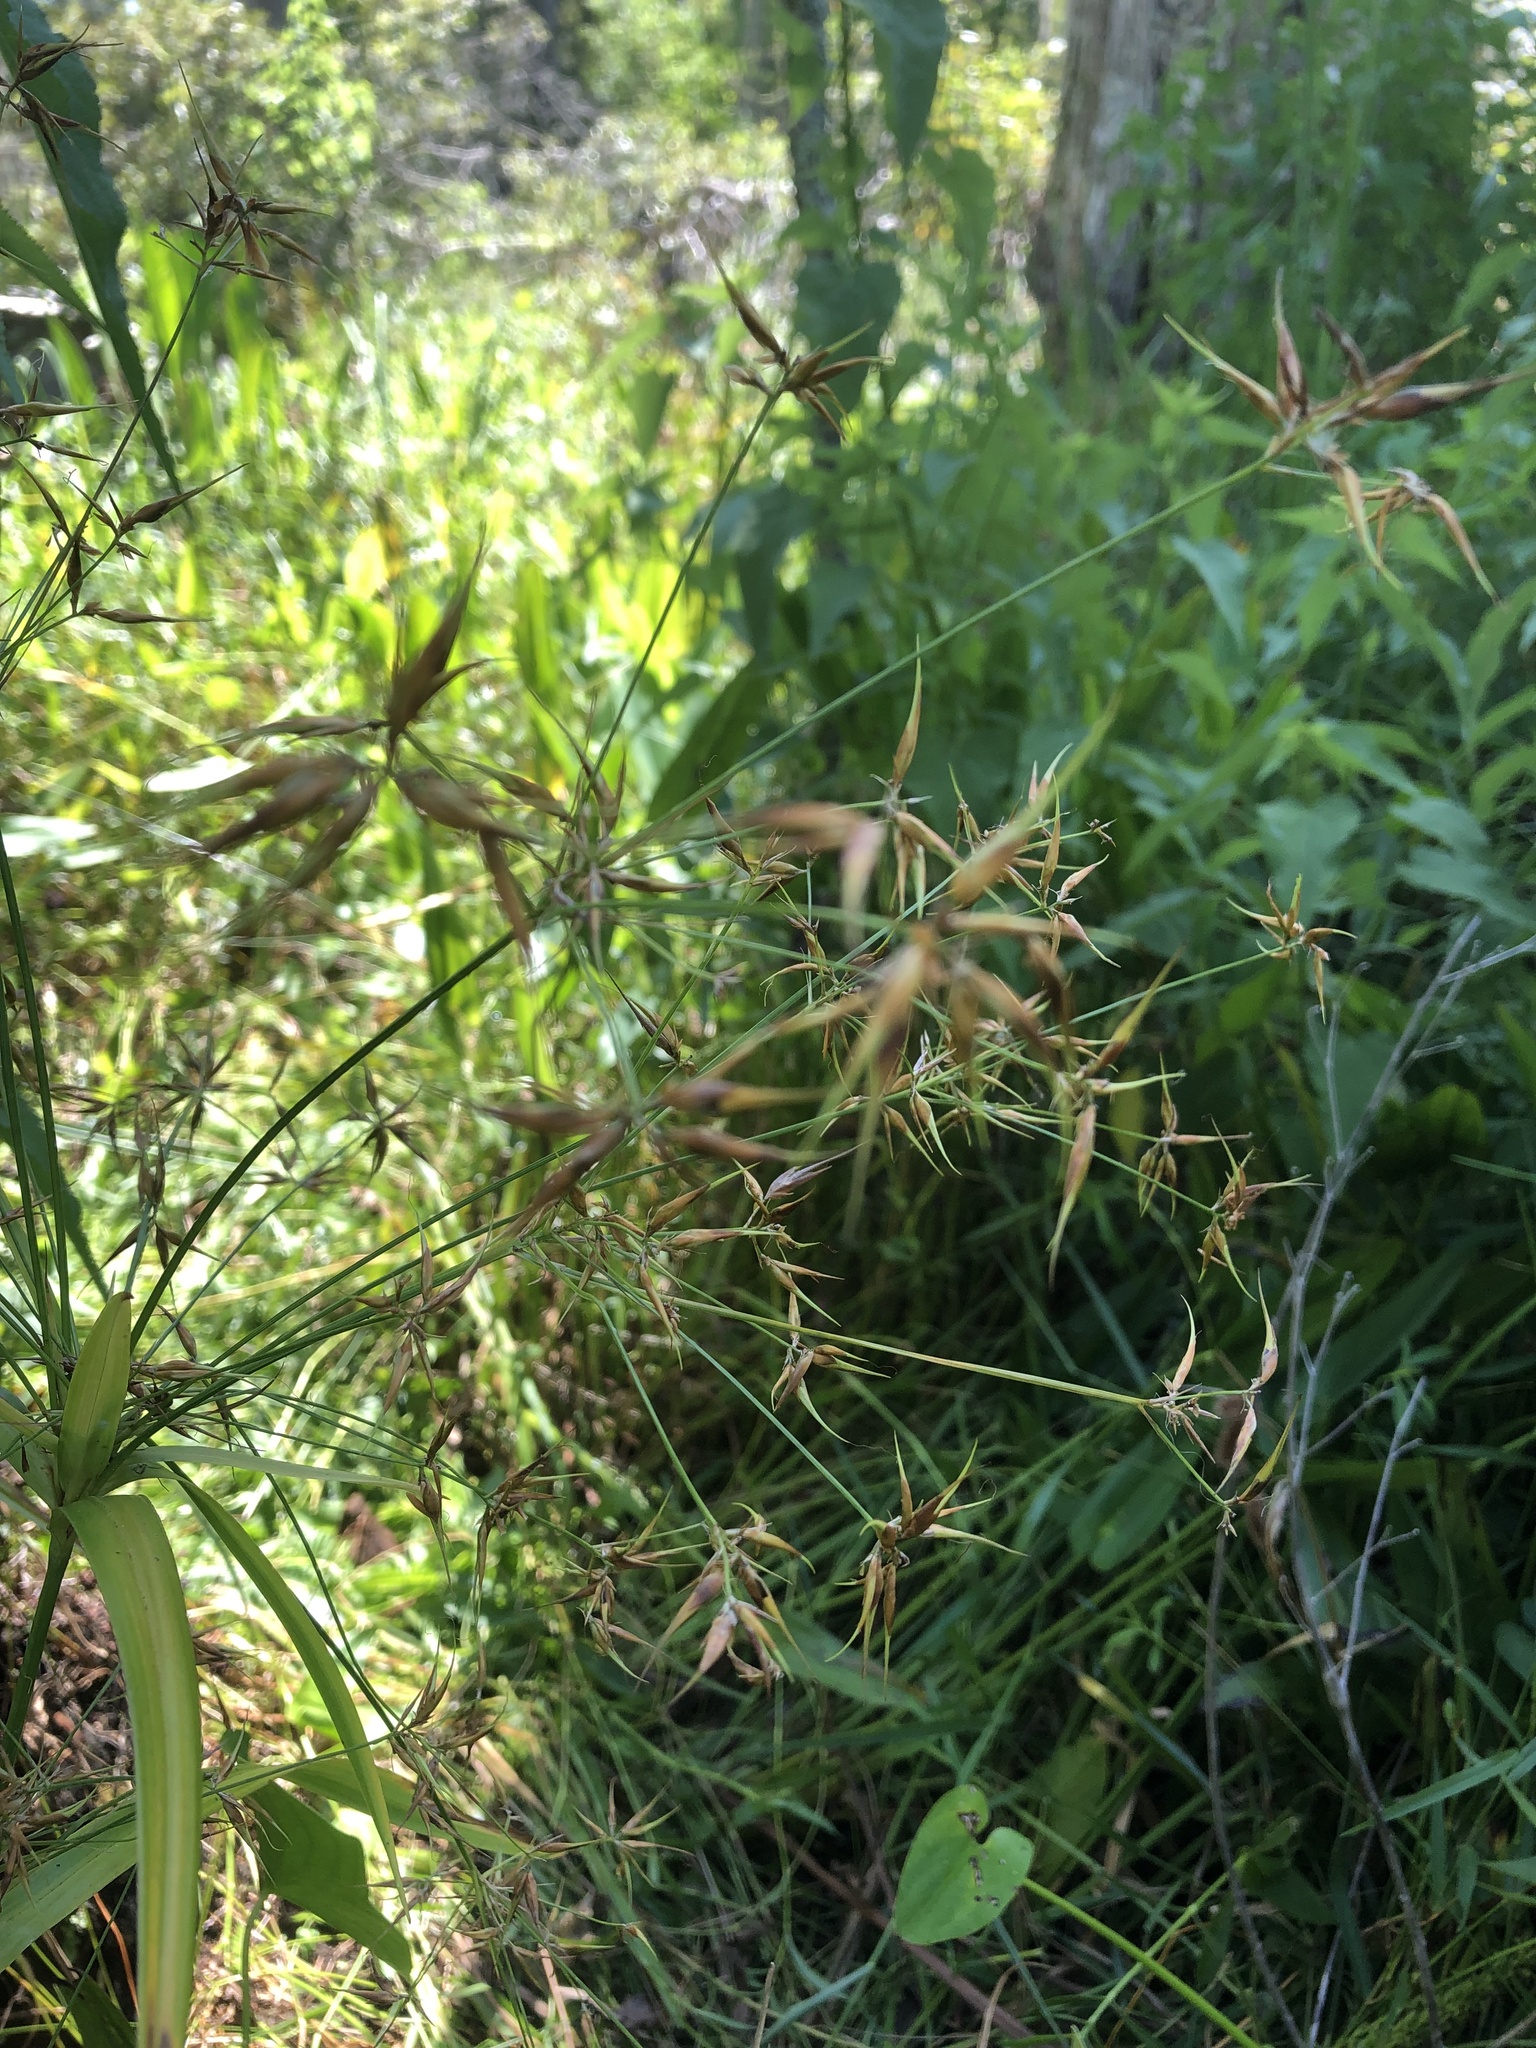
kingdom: Plantae
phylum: Tracheophyta
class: Liliopsida
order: Poales
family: Cyperaceae
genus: Rhynchospora
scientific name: Rhynchospora corniculata
